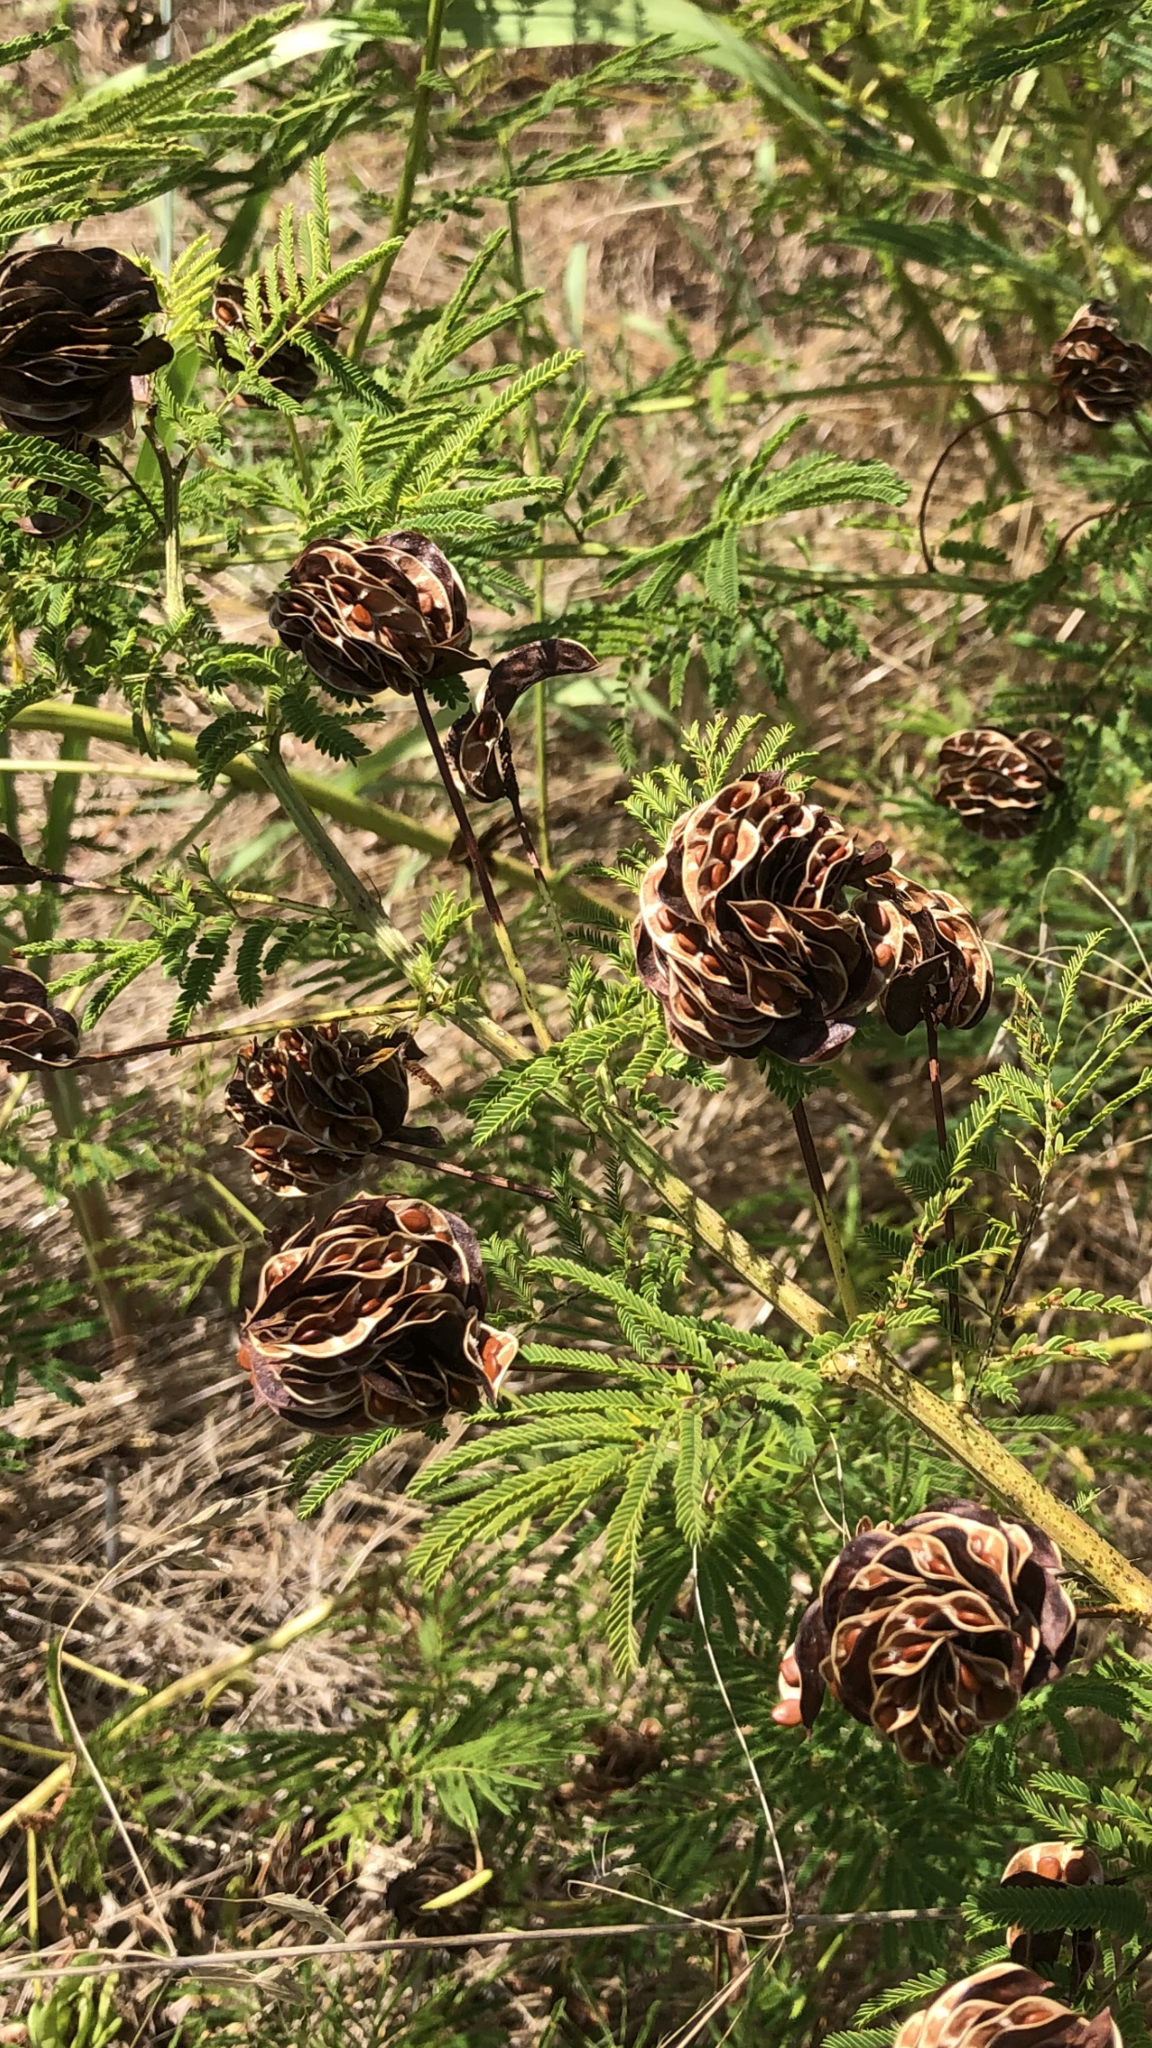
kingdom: Plantae
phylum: Tracheophyta
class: Magnoliopsida
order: Fabales
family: Fabaceae
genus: Desmanthus
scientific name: Desmanthus illinoensis
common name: Illinois bundle-flower
